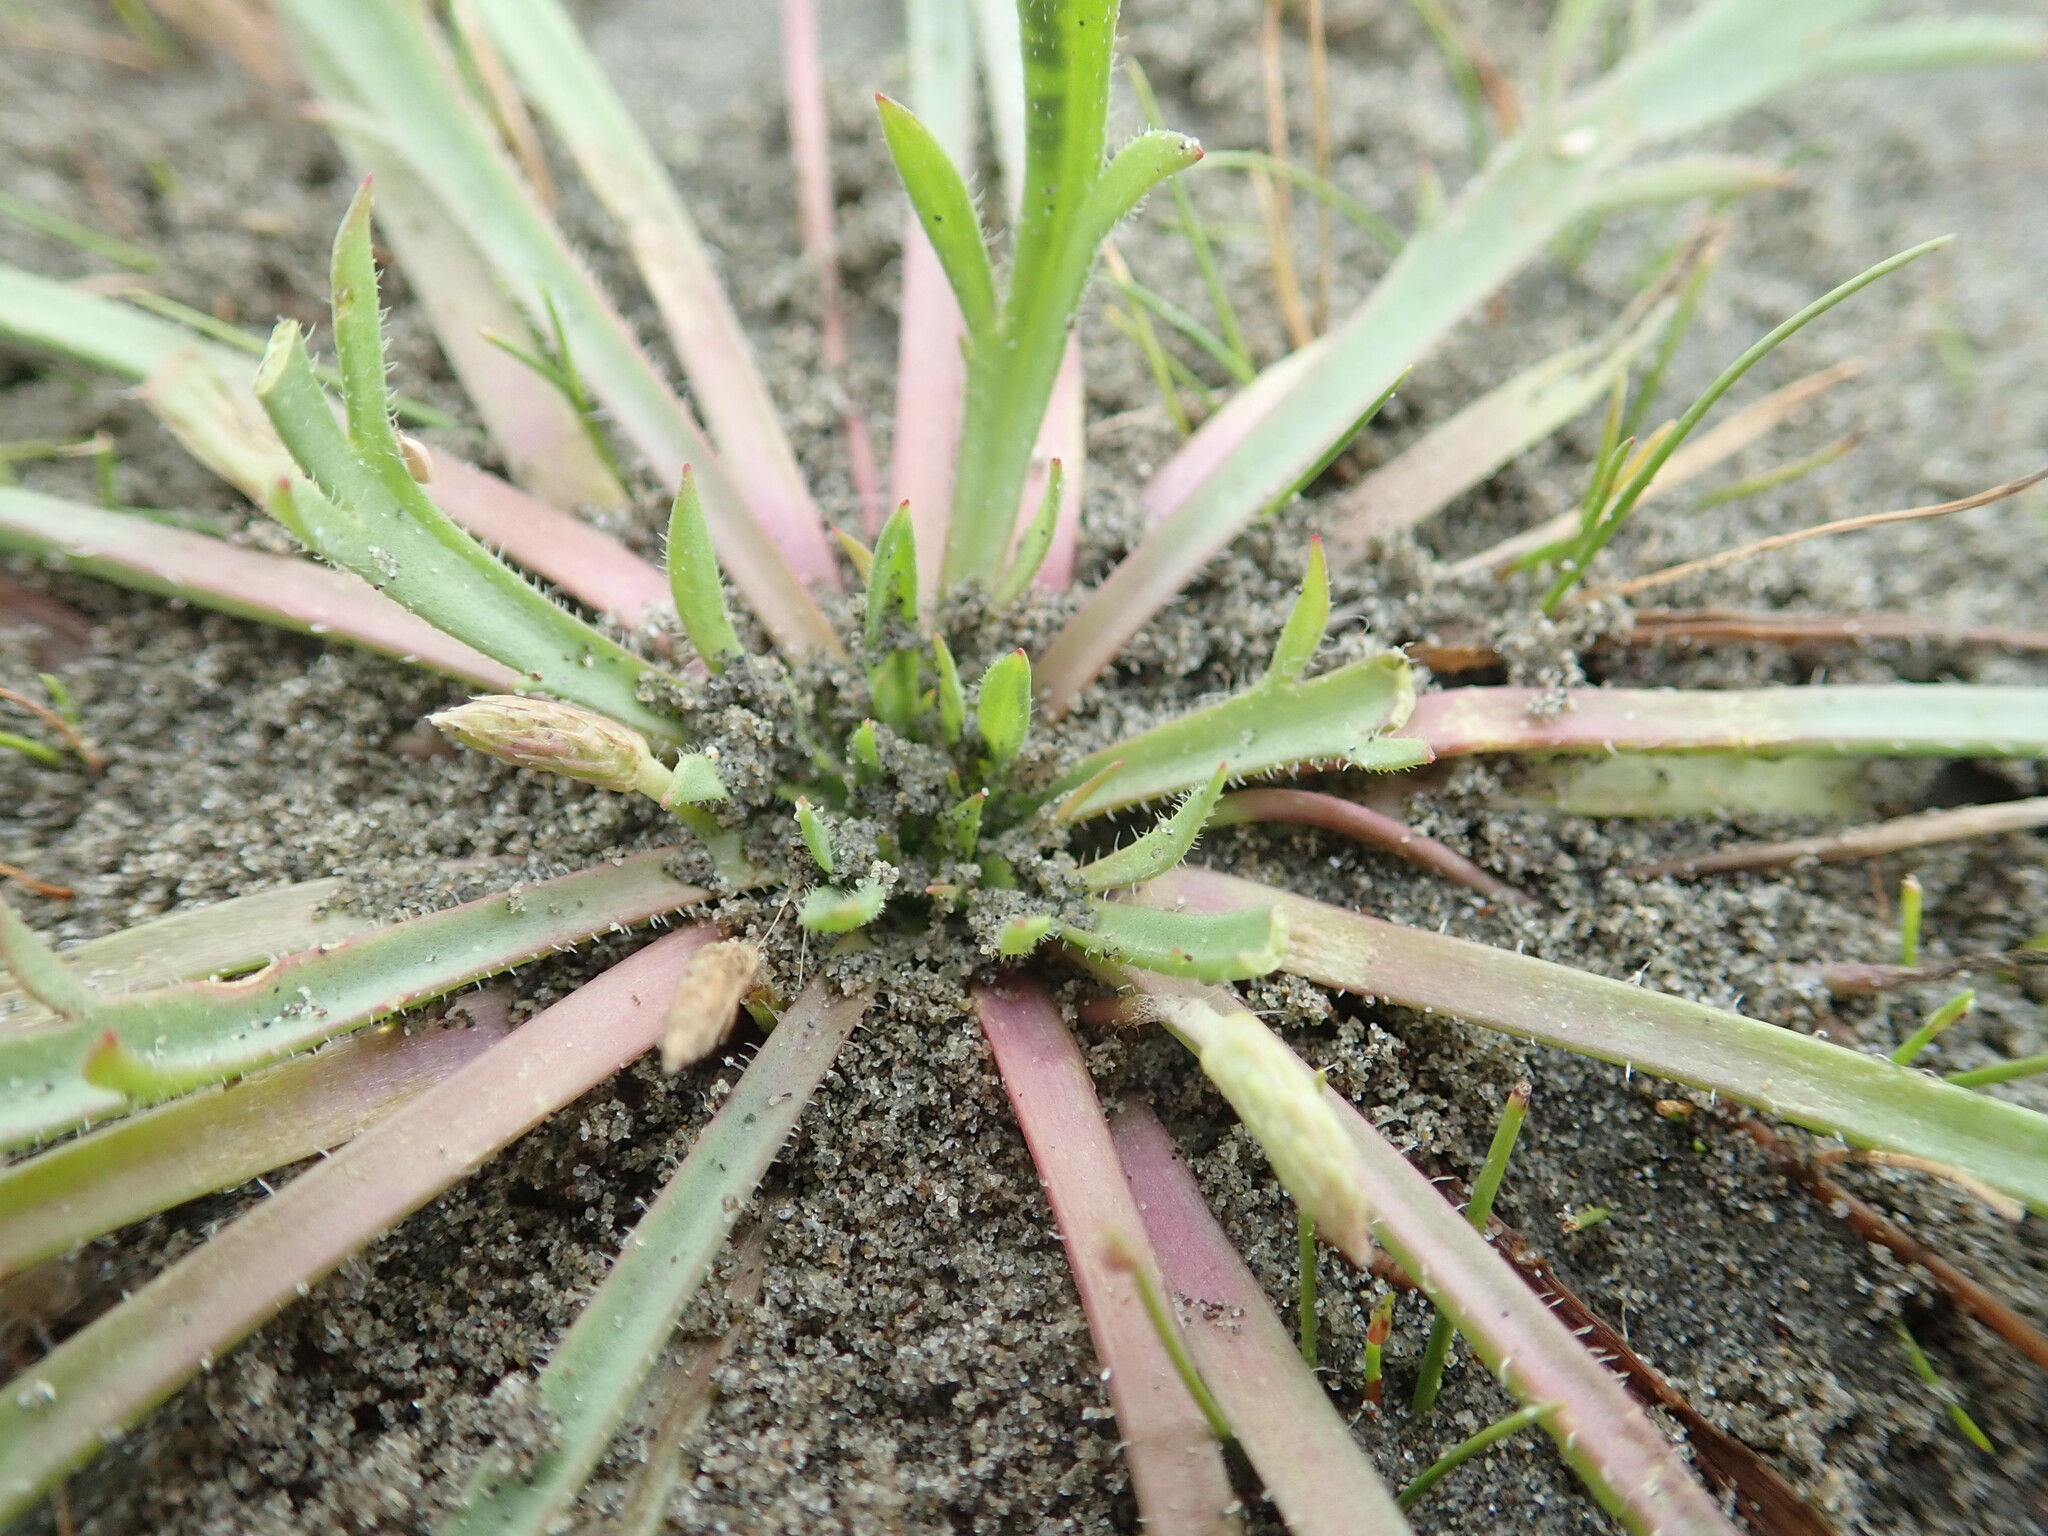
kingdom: Plantae
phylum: Tracheophyta
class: Magnoliopsida
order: Lamiales
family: Plantaginaceae
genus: Plantago
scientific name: Plantago coronopus
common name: Buck's-horn plantain
